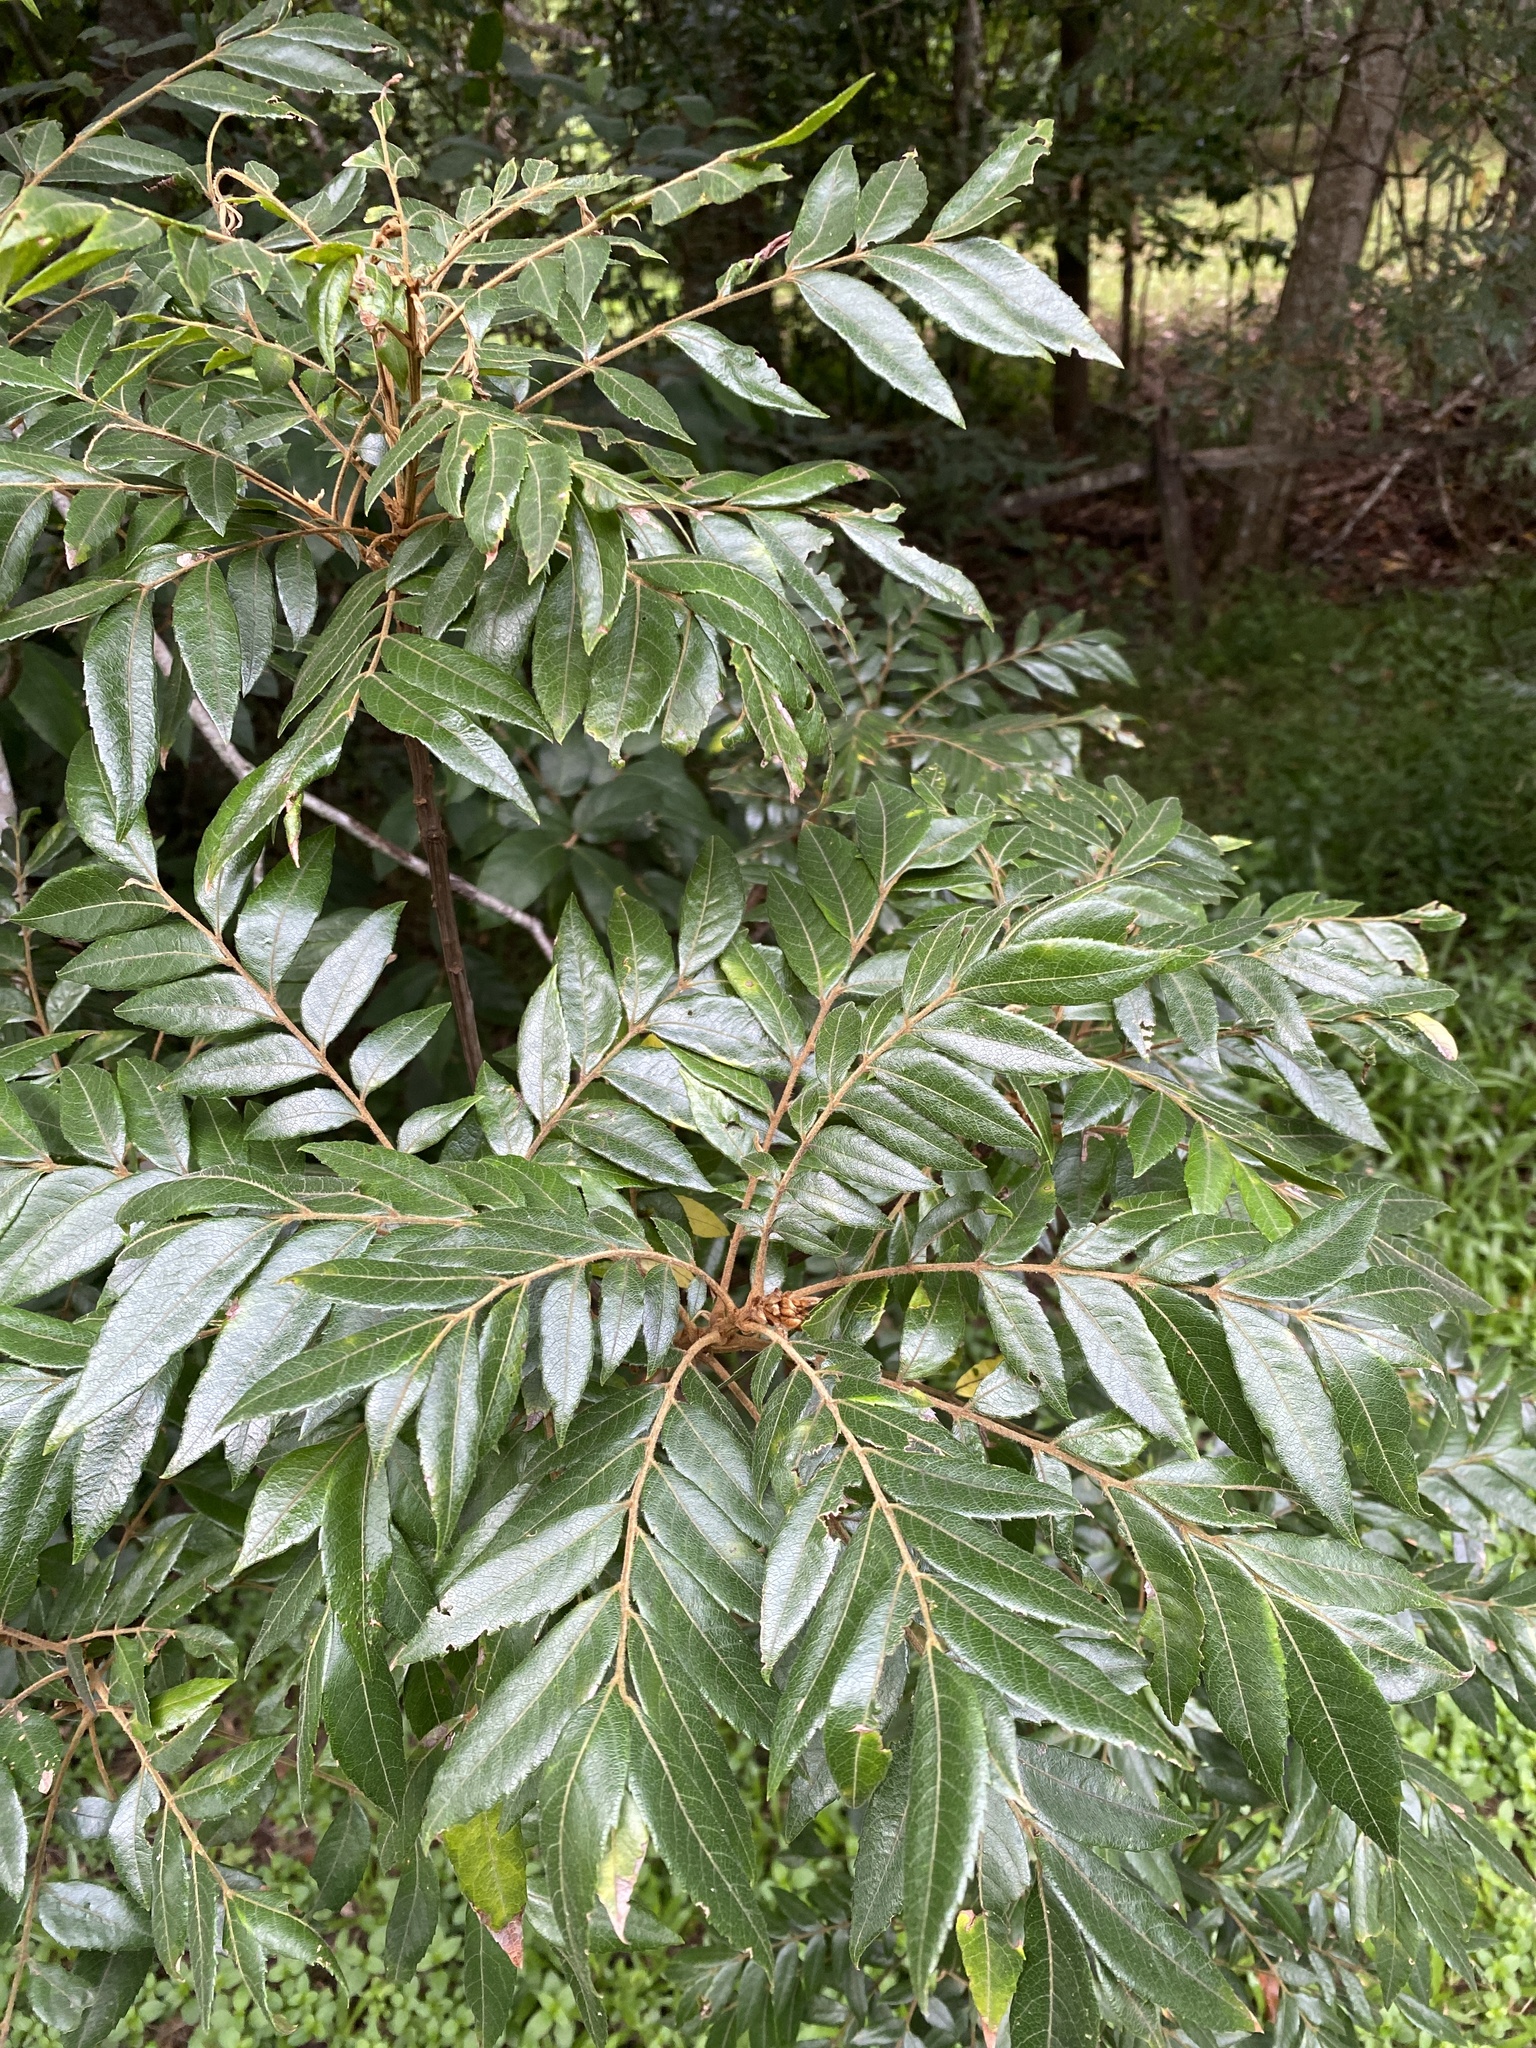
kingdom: Plantae
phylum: Tracheophyta
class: Magnoliopsida
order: Sapindales
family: Sapindaceae
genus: Jagera
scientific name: Jagera pseudorhus
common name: Fern-leaf-tamarind
